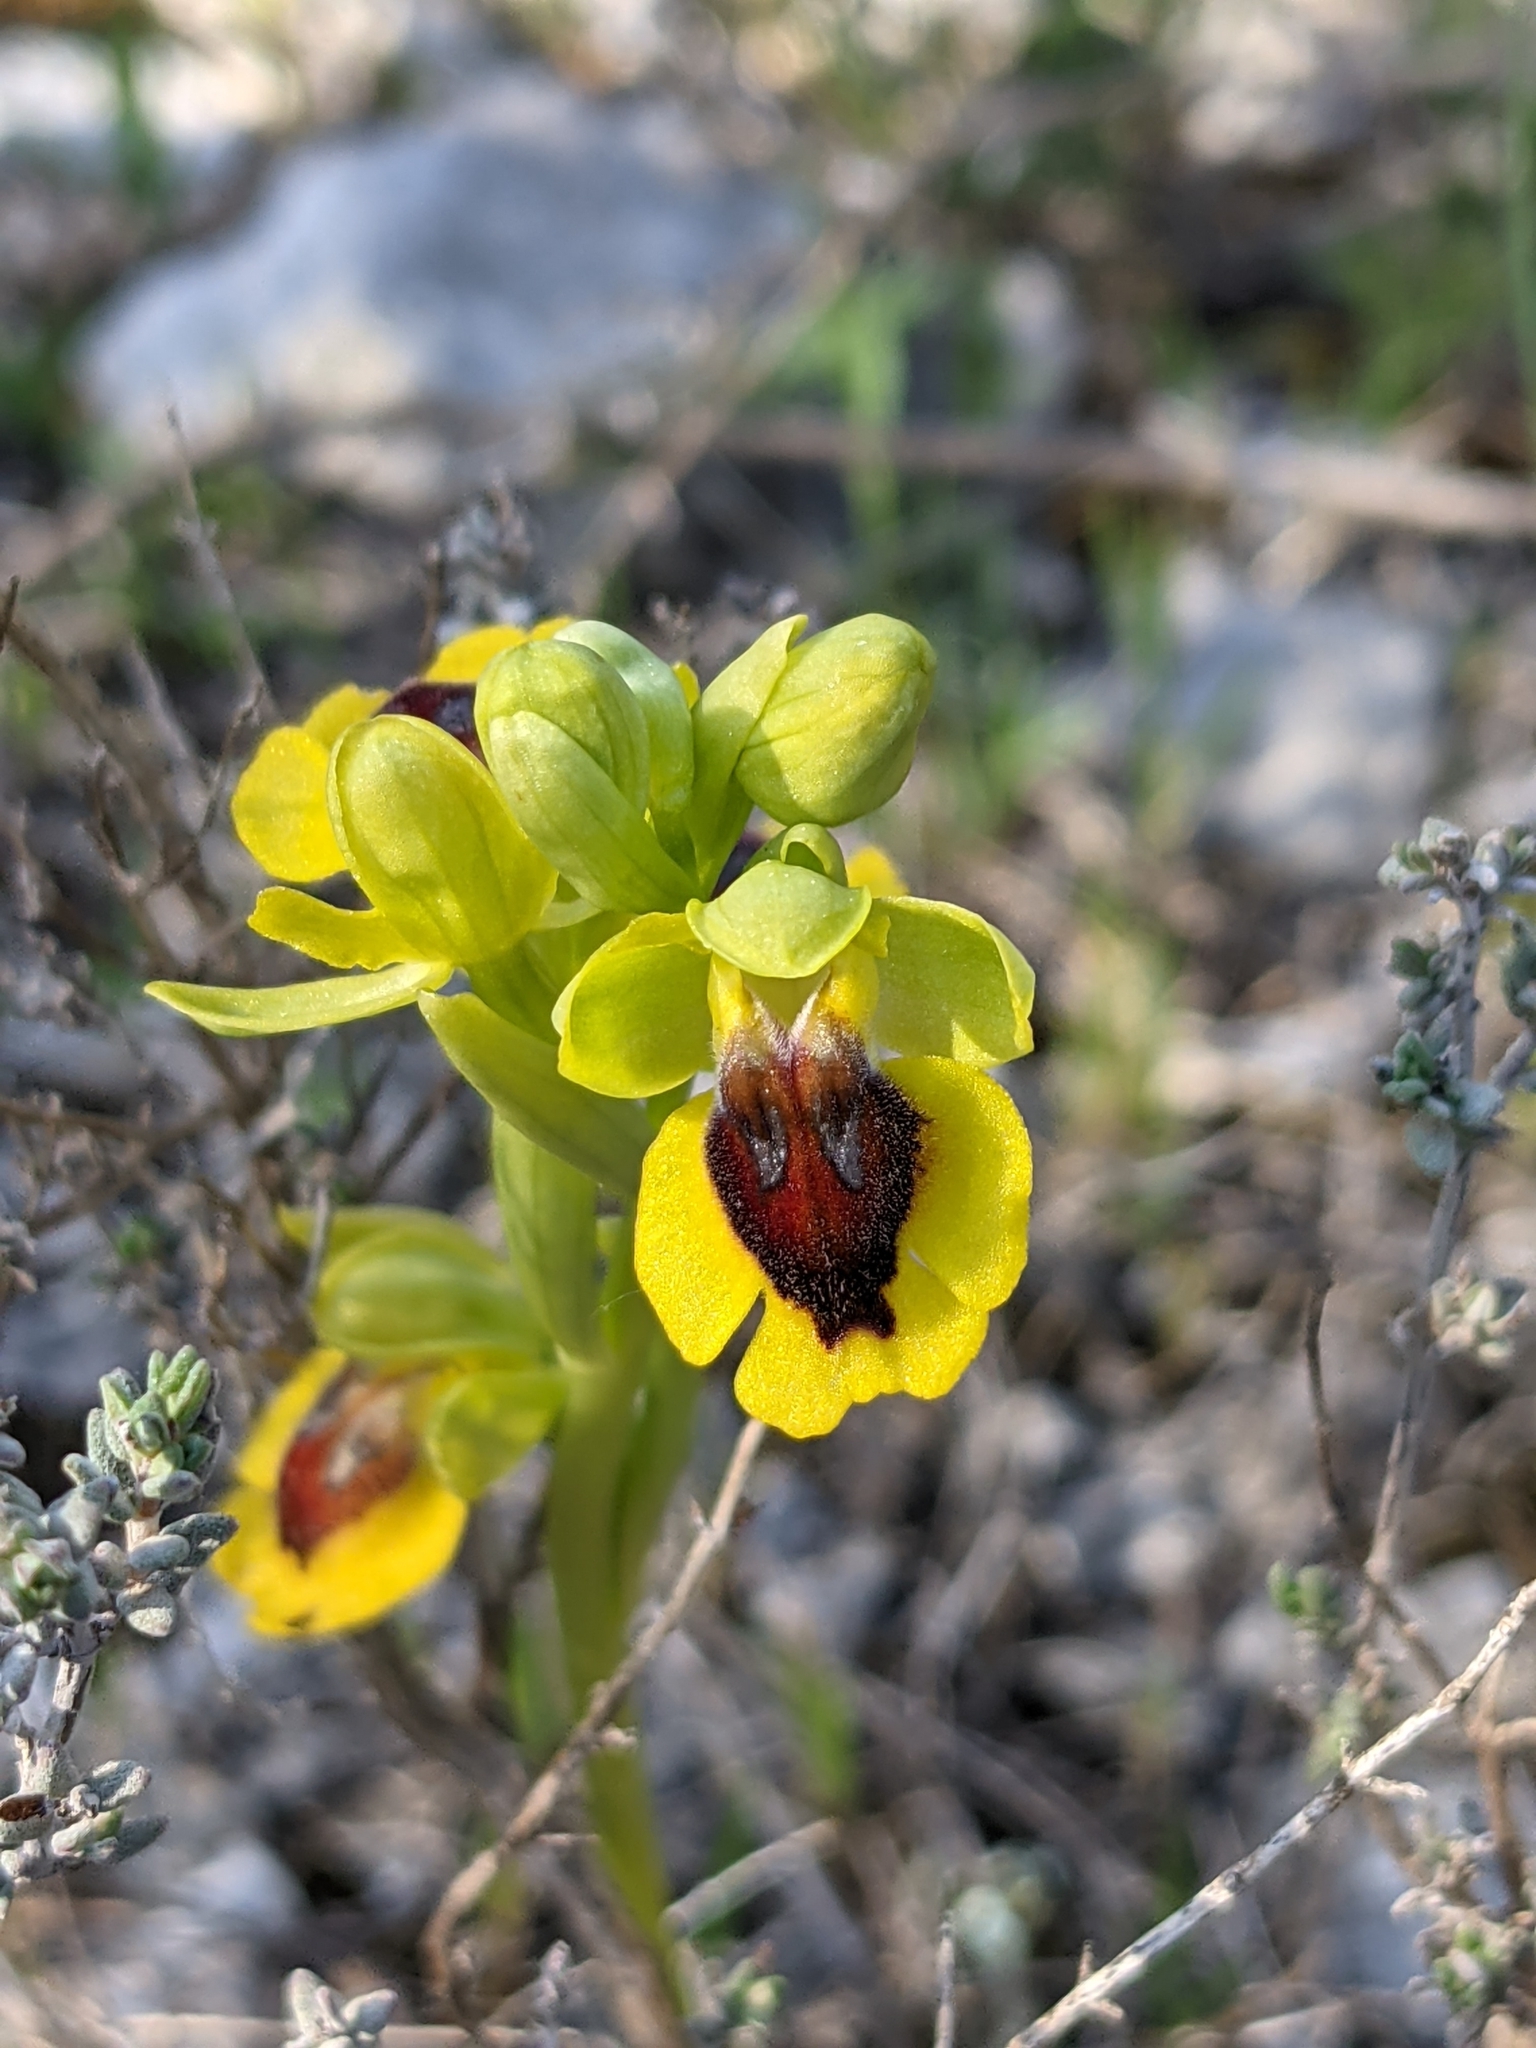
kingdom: Plantae
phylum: Tracheophyta
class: Liliopsida
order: Asparagales
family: Orchidaceae
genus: Ophrys
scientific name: Ophrys lutea
